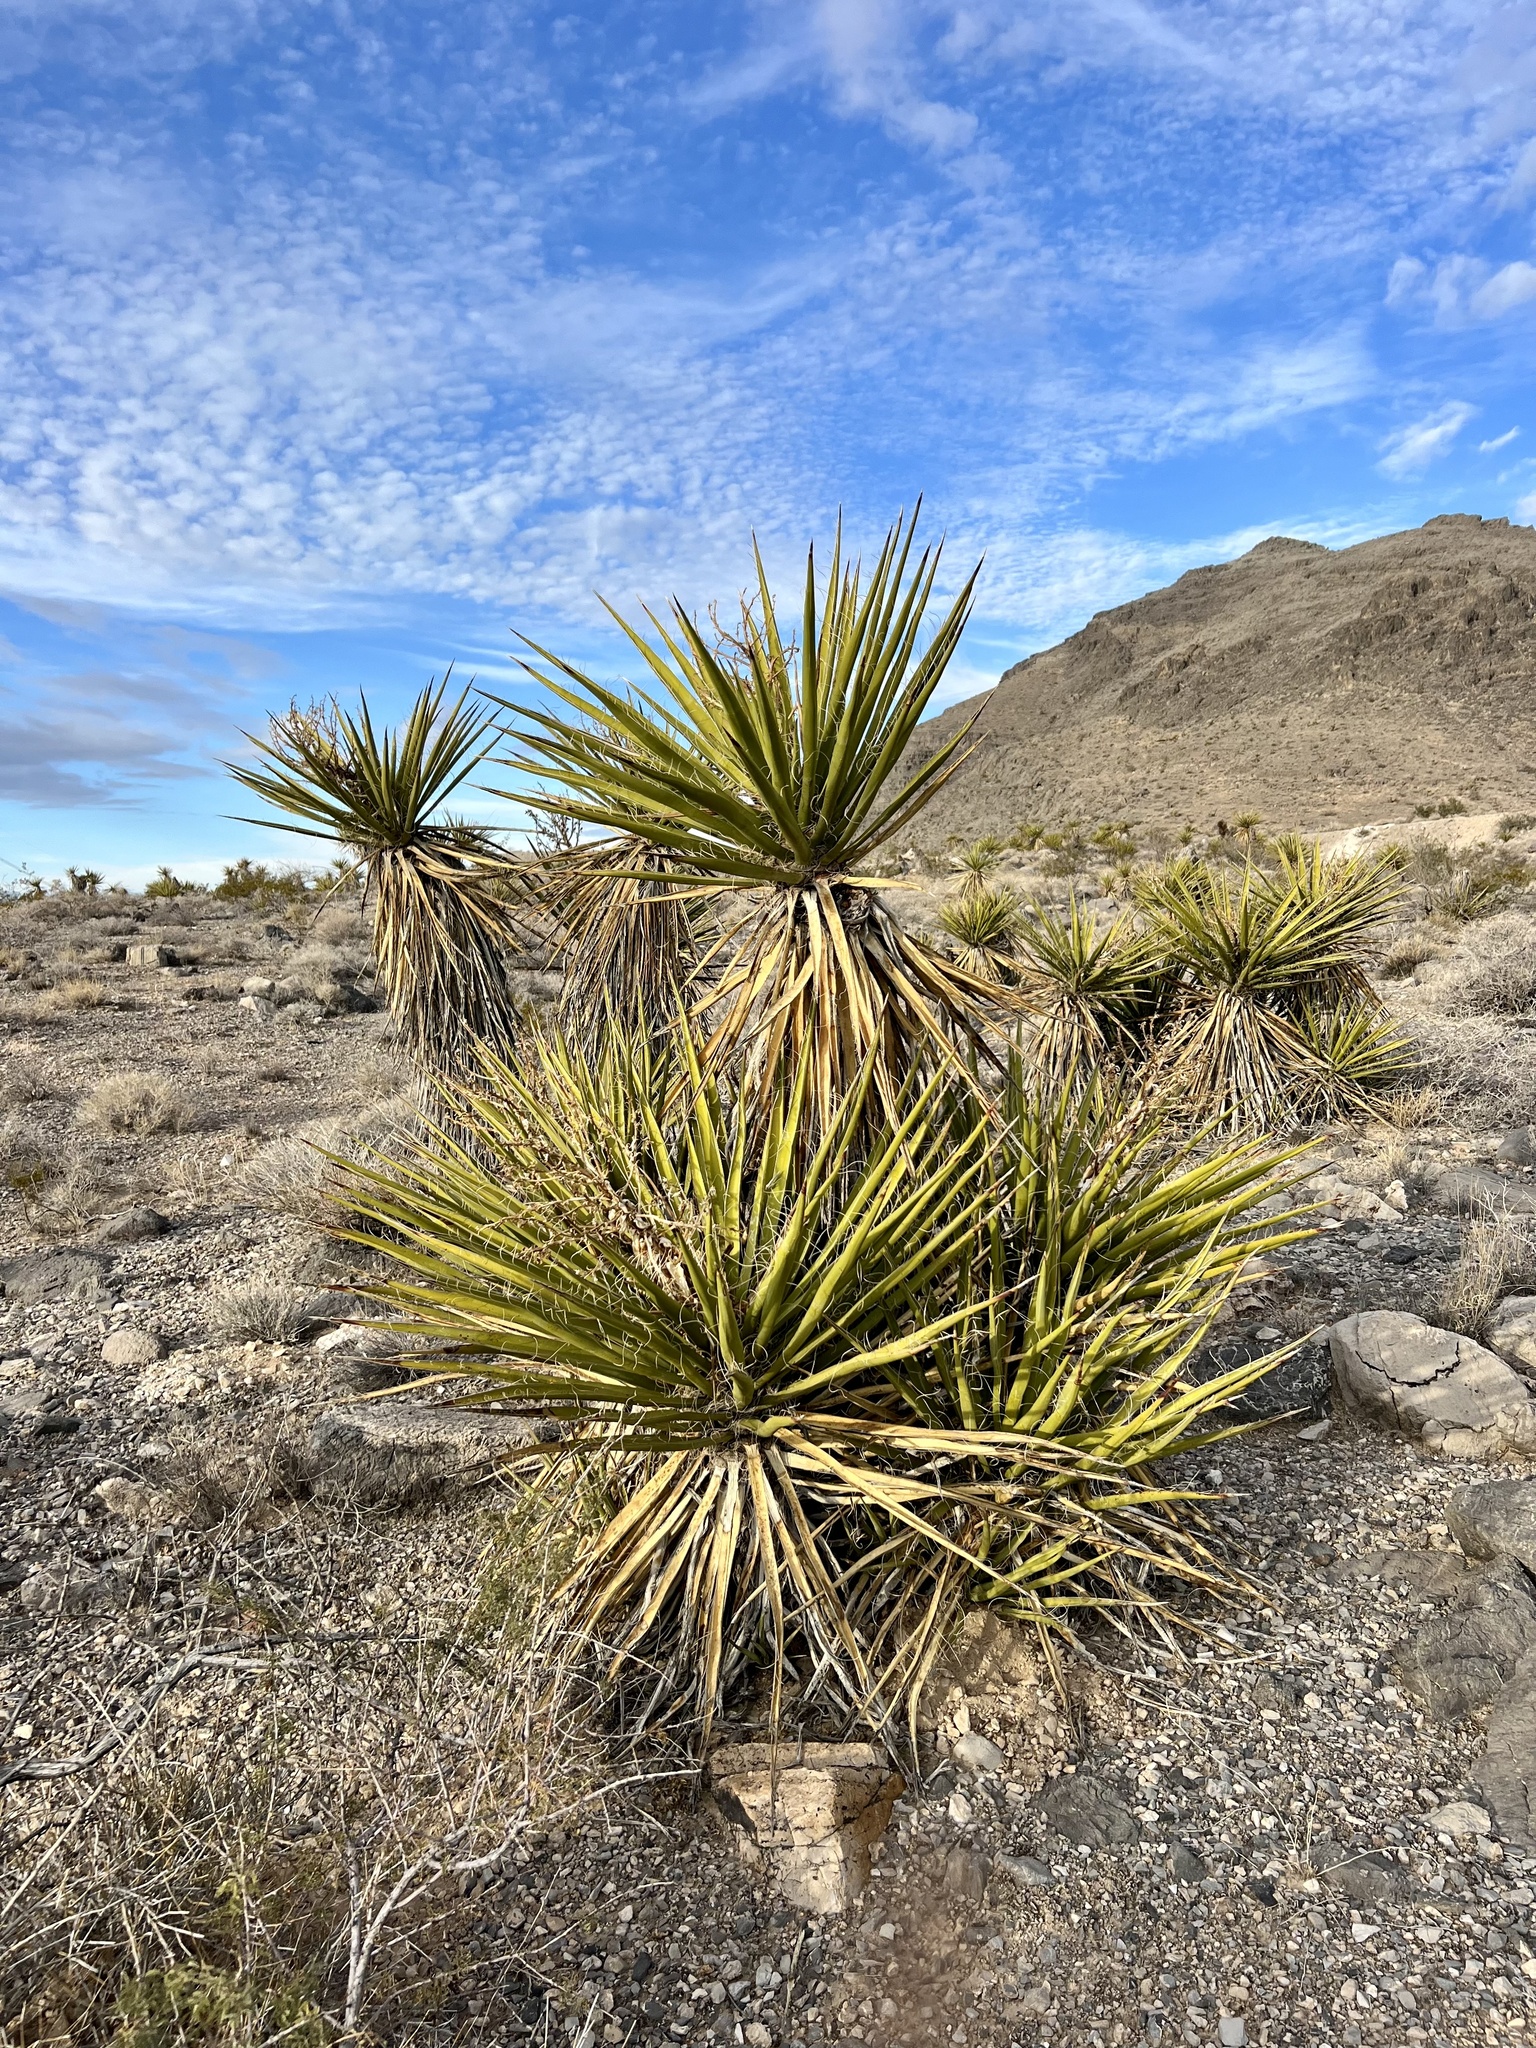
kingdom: Plantae
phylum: Tracheophyta
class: Liliopsida
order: Asparagales
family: Asparagaceae
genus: Yucca
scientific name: Yucca schidigera
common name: Mojave yucca
